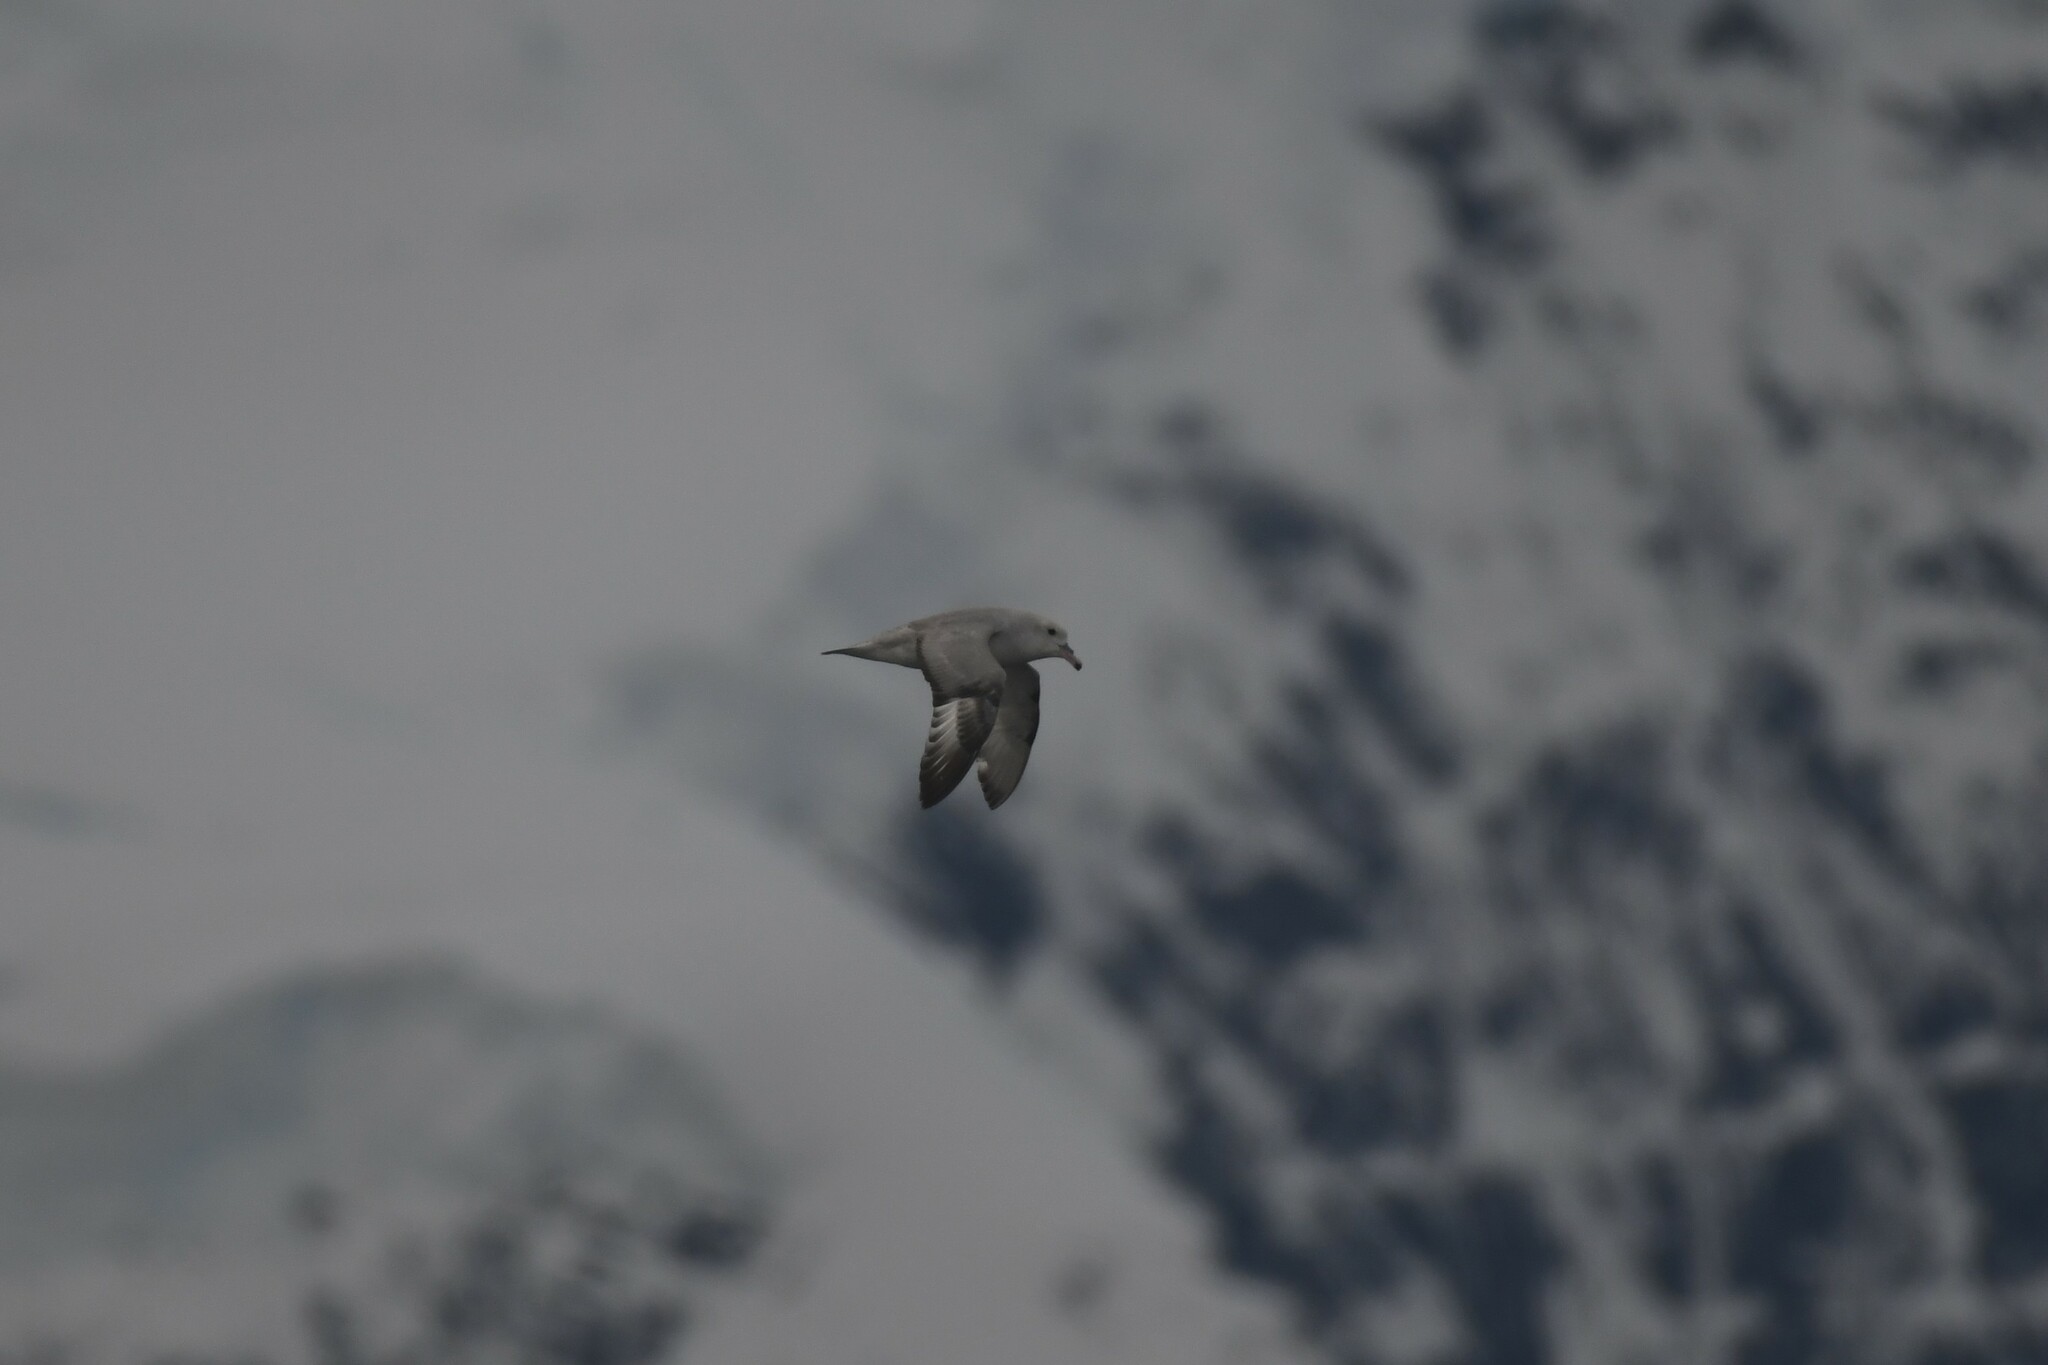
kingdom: Animalia
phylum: Chordata
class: Aves
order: Procellariiformes
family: Procellariidae
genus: Fulmarus
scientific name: Fulmarus glacialoides
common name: Southern fulmar
